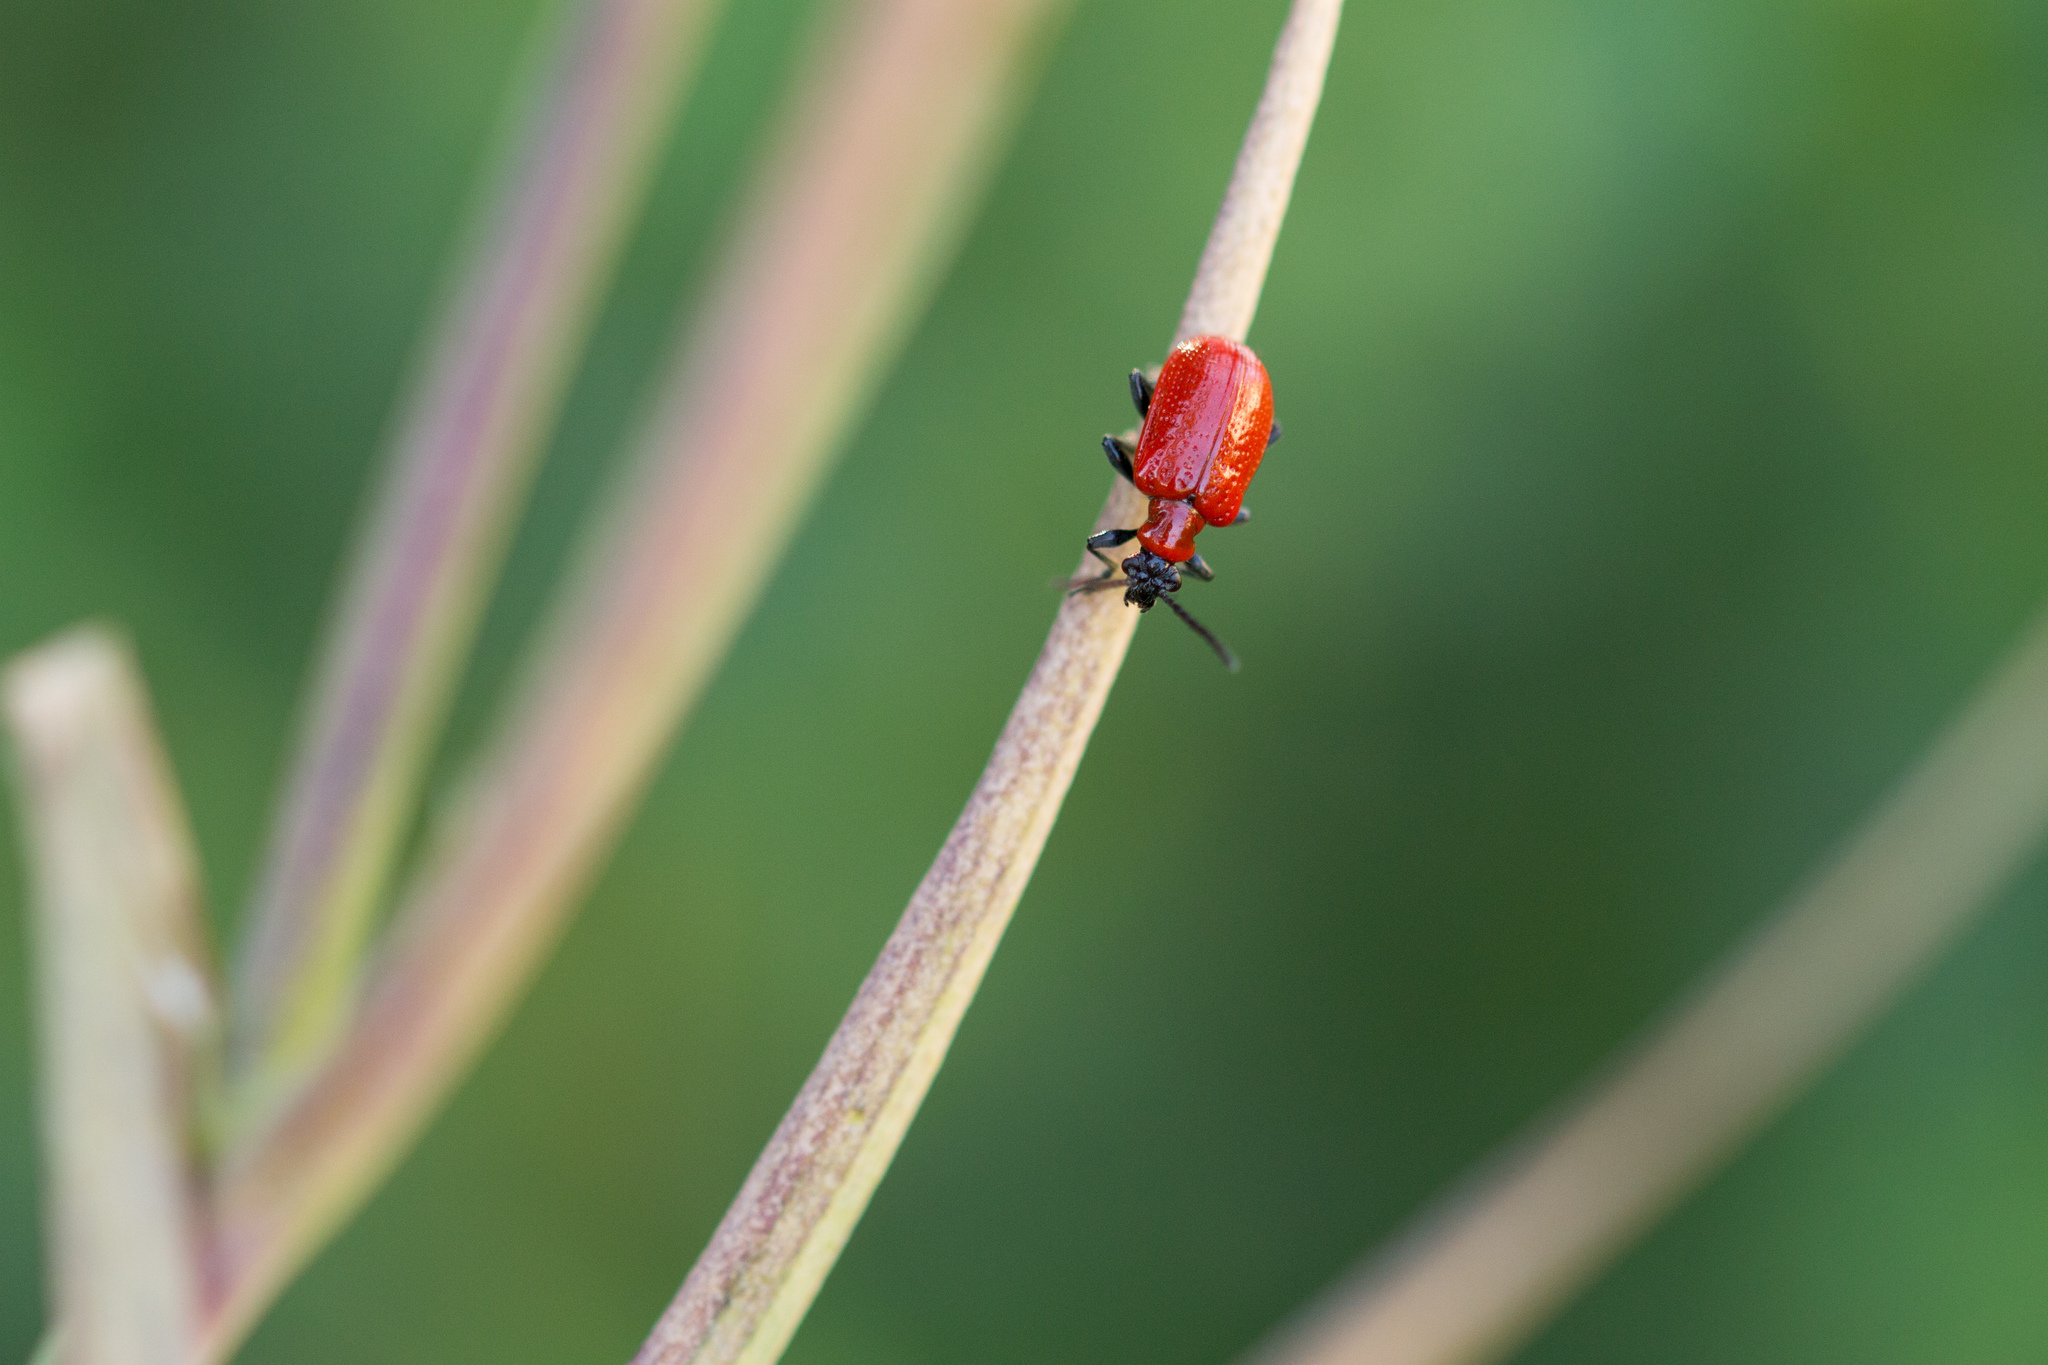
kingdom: Animalia
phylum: Arthropoda
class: Insecta
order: Coleoptera
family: Chrysomelidae
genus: Lilioceris
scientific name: Lilioceris lilii
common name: Lily beetle
